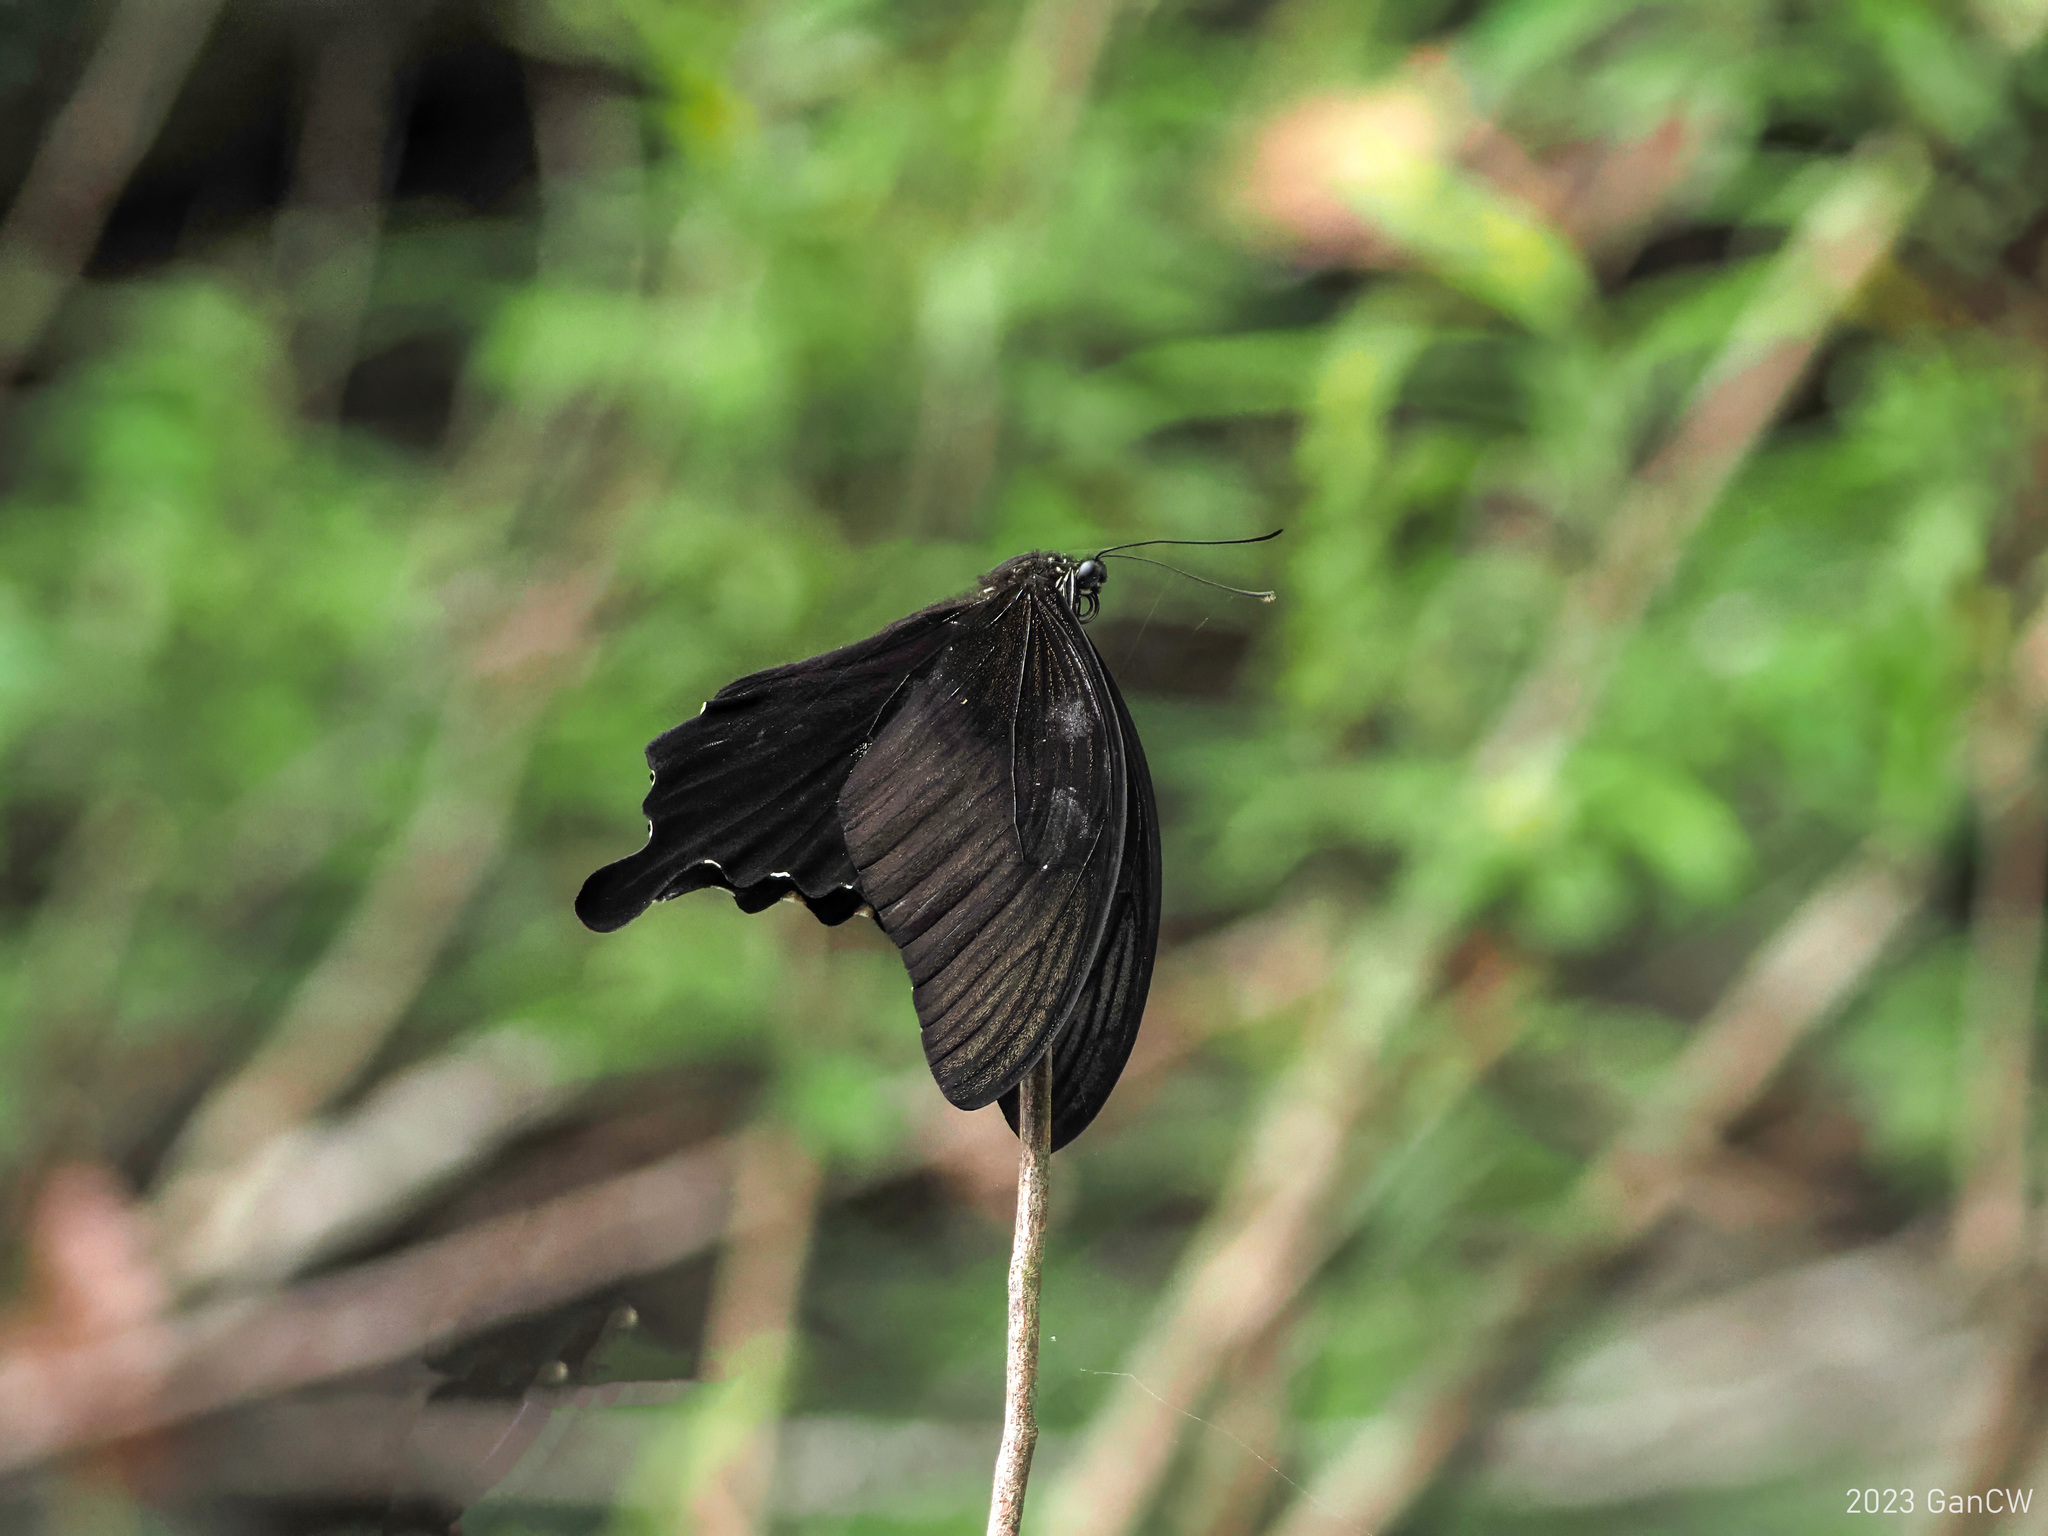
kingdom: Animalia
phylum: Arthropoda
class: Insecta
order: Lepidoptera
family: Papilionidae
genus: Papilio
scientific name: Papilio sataspes
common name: Sulawesi red helen
